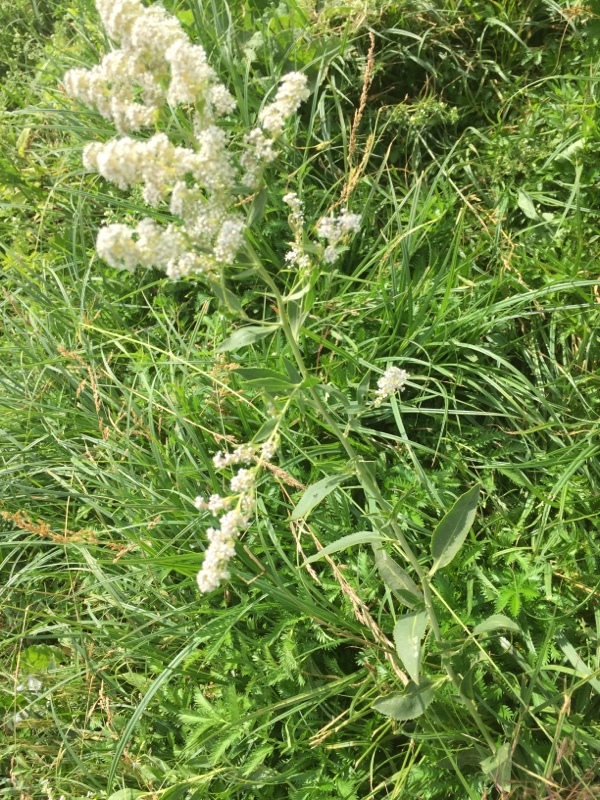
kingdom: Plantae
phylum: Tracheophyta
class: Magnoliopsida
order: Brassicales
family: Brassicaceae
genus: Lepidium
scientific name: Lepidium latifolium
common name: Dittander
